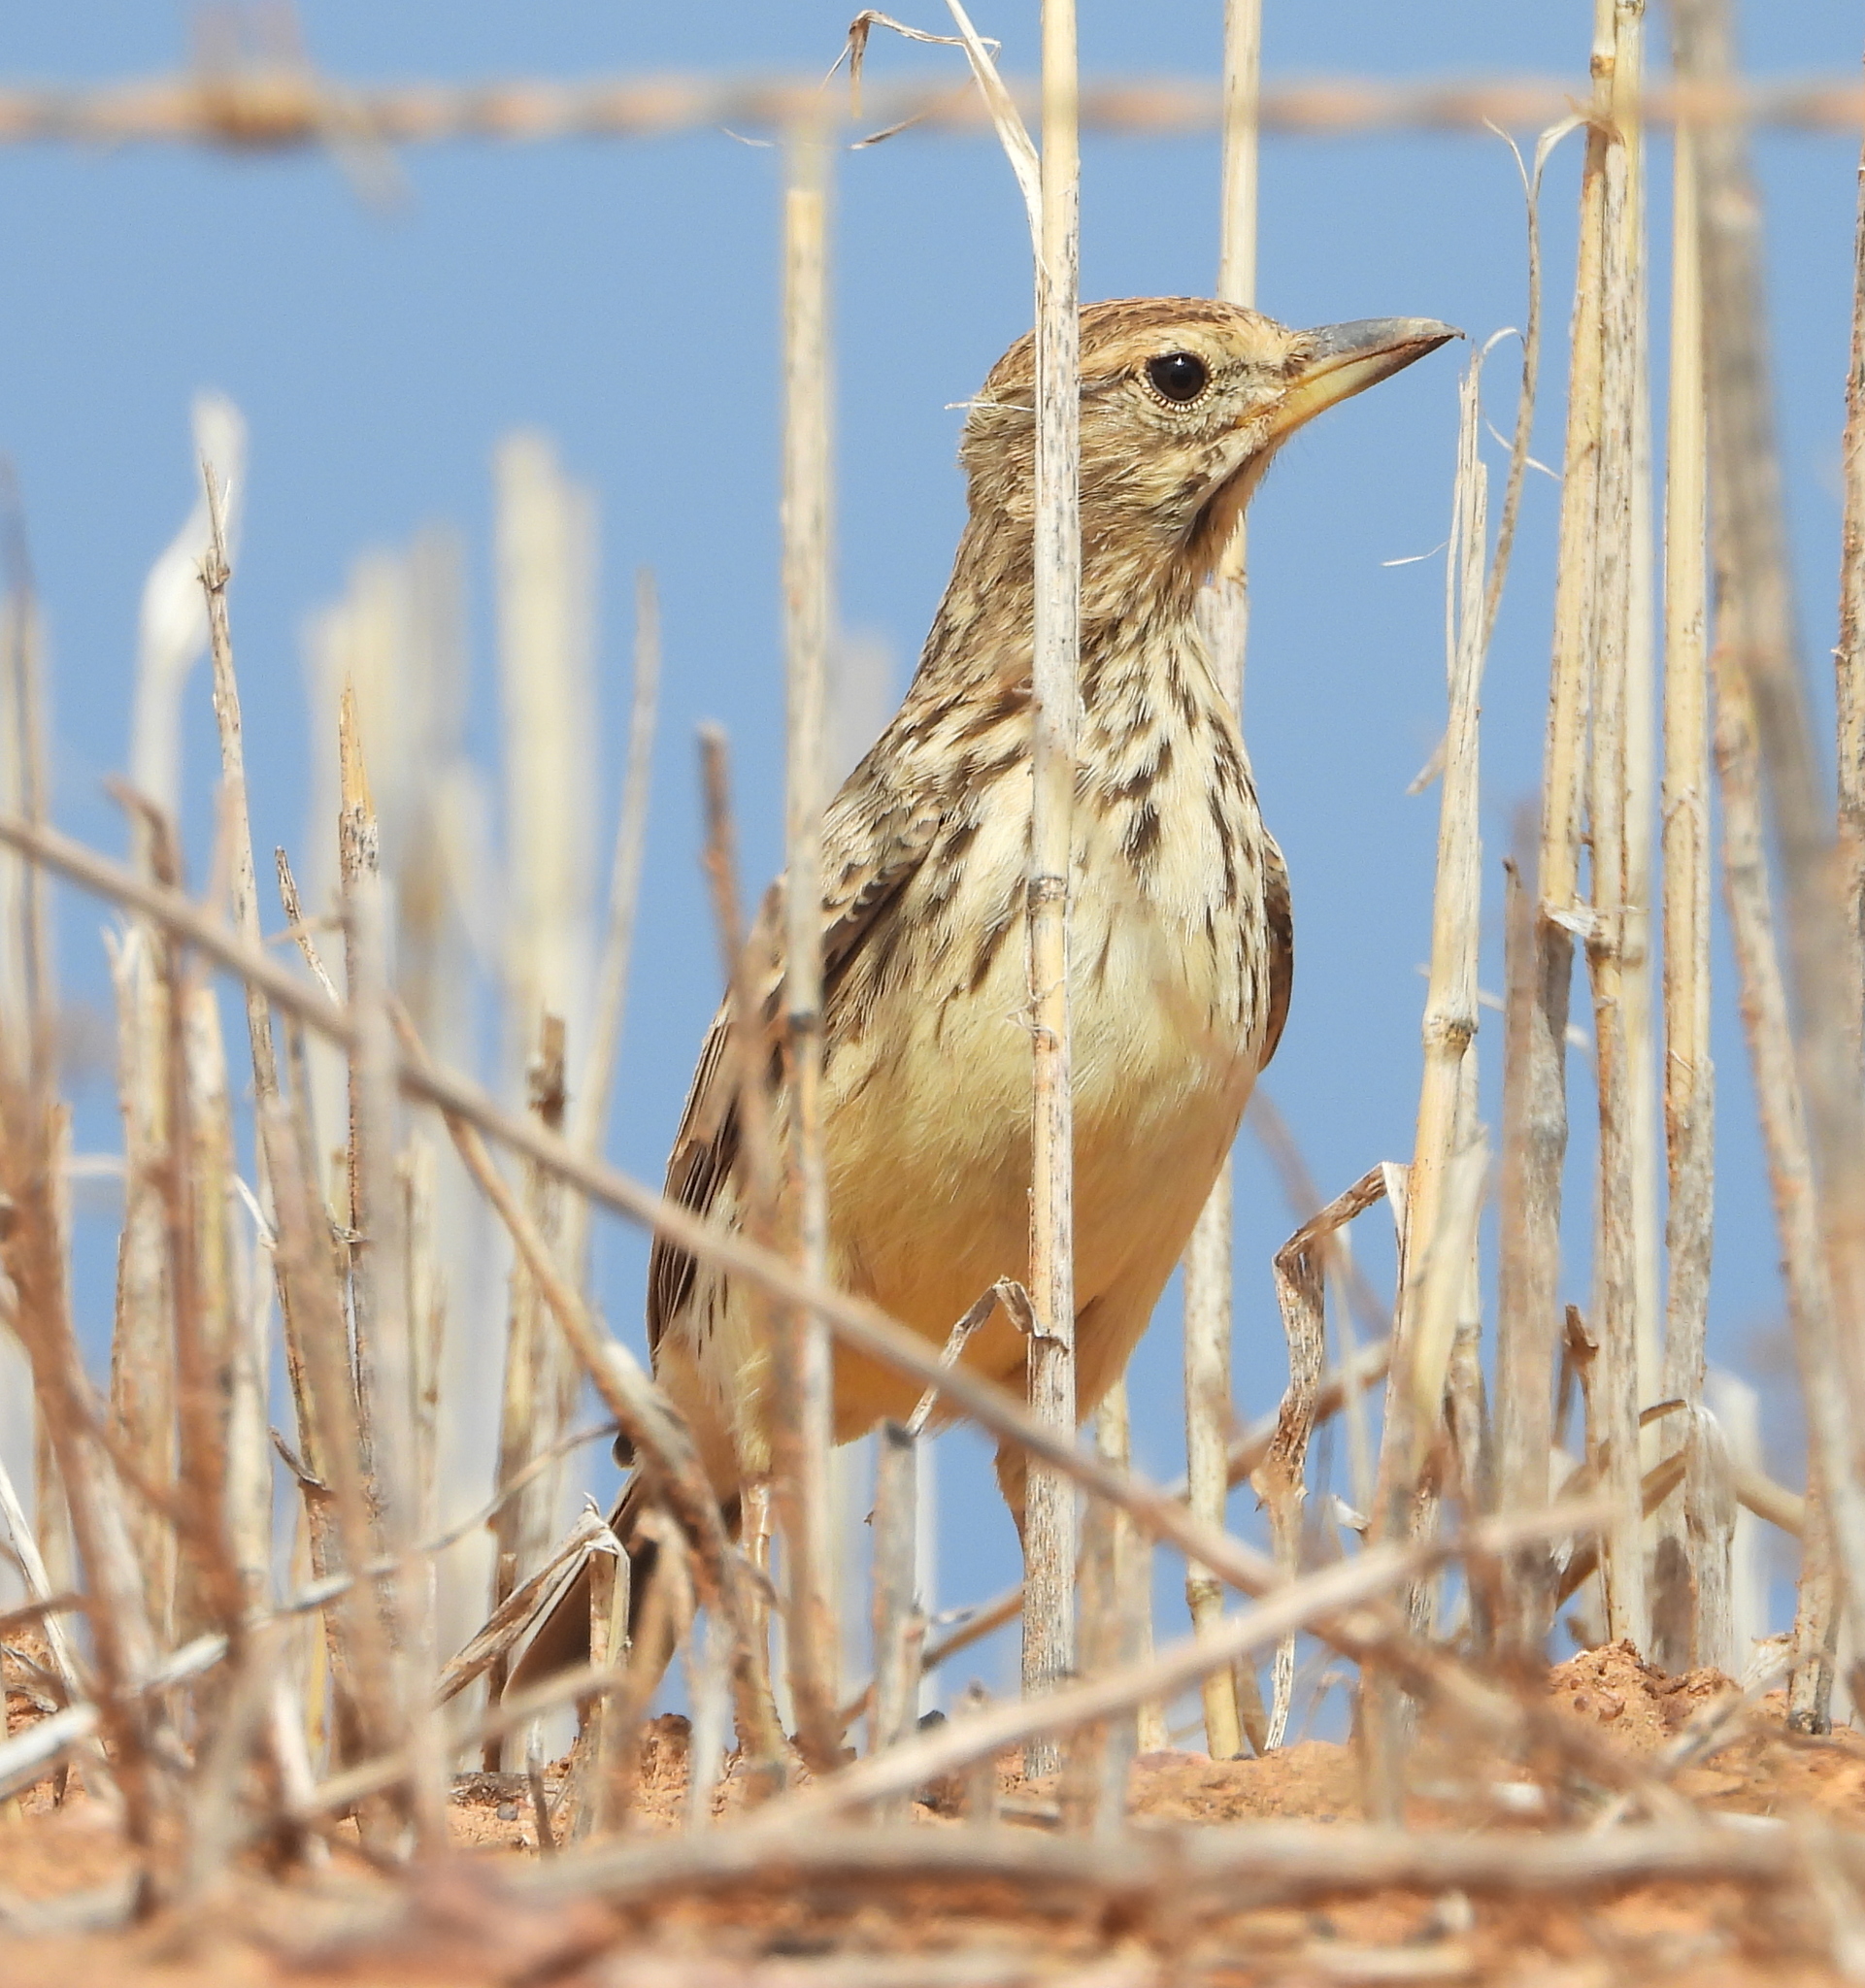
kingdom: Animalia
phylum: Chordata
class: Aves
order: Passeriformes
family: Alaudidae
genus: Galerida
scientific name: Galerida magnirostris
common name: Large-billed lark
